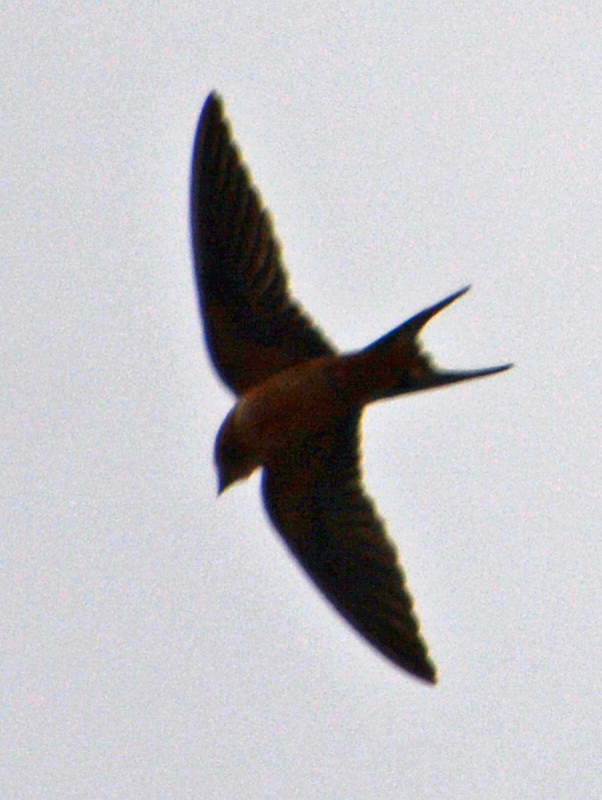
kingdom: Animalia
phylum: Chordata
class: Aves
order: Passeriformes
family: Hirundinidae
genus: Hirundo
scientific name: Hirundo rustica
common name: Barn swallow
